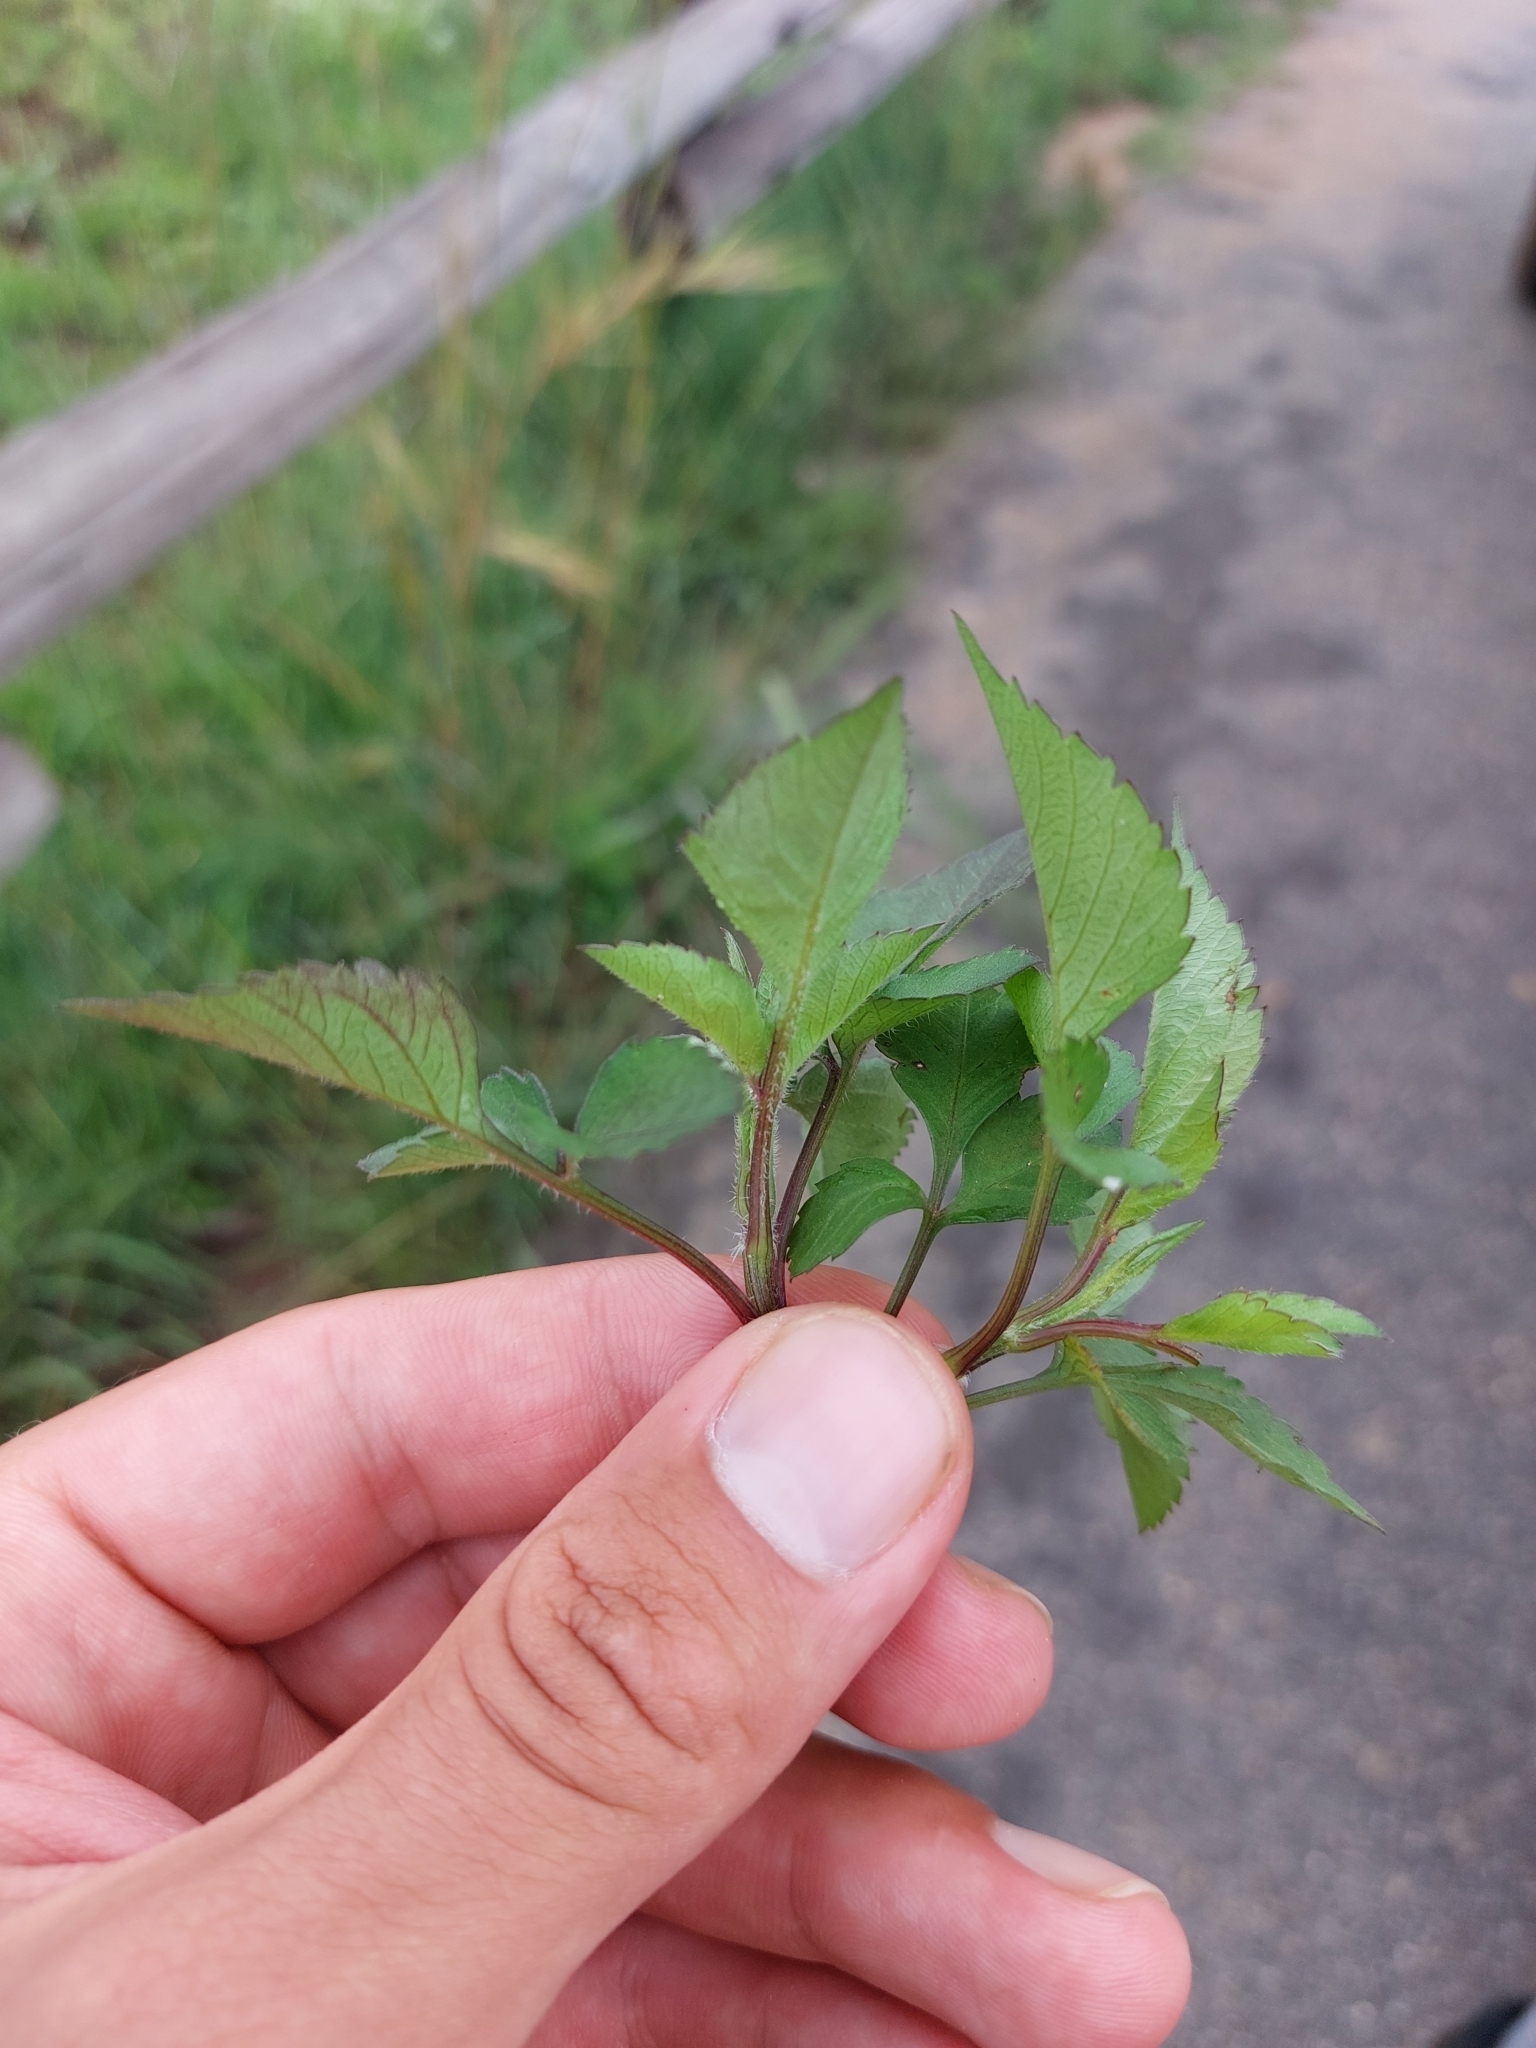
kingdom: Plantae
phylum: Tracheophyta
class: Magnoliopsida
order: Asterales
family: Asteraceae
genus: Bidens
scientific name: Bidens pilosa
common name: Black-jack
